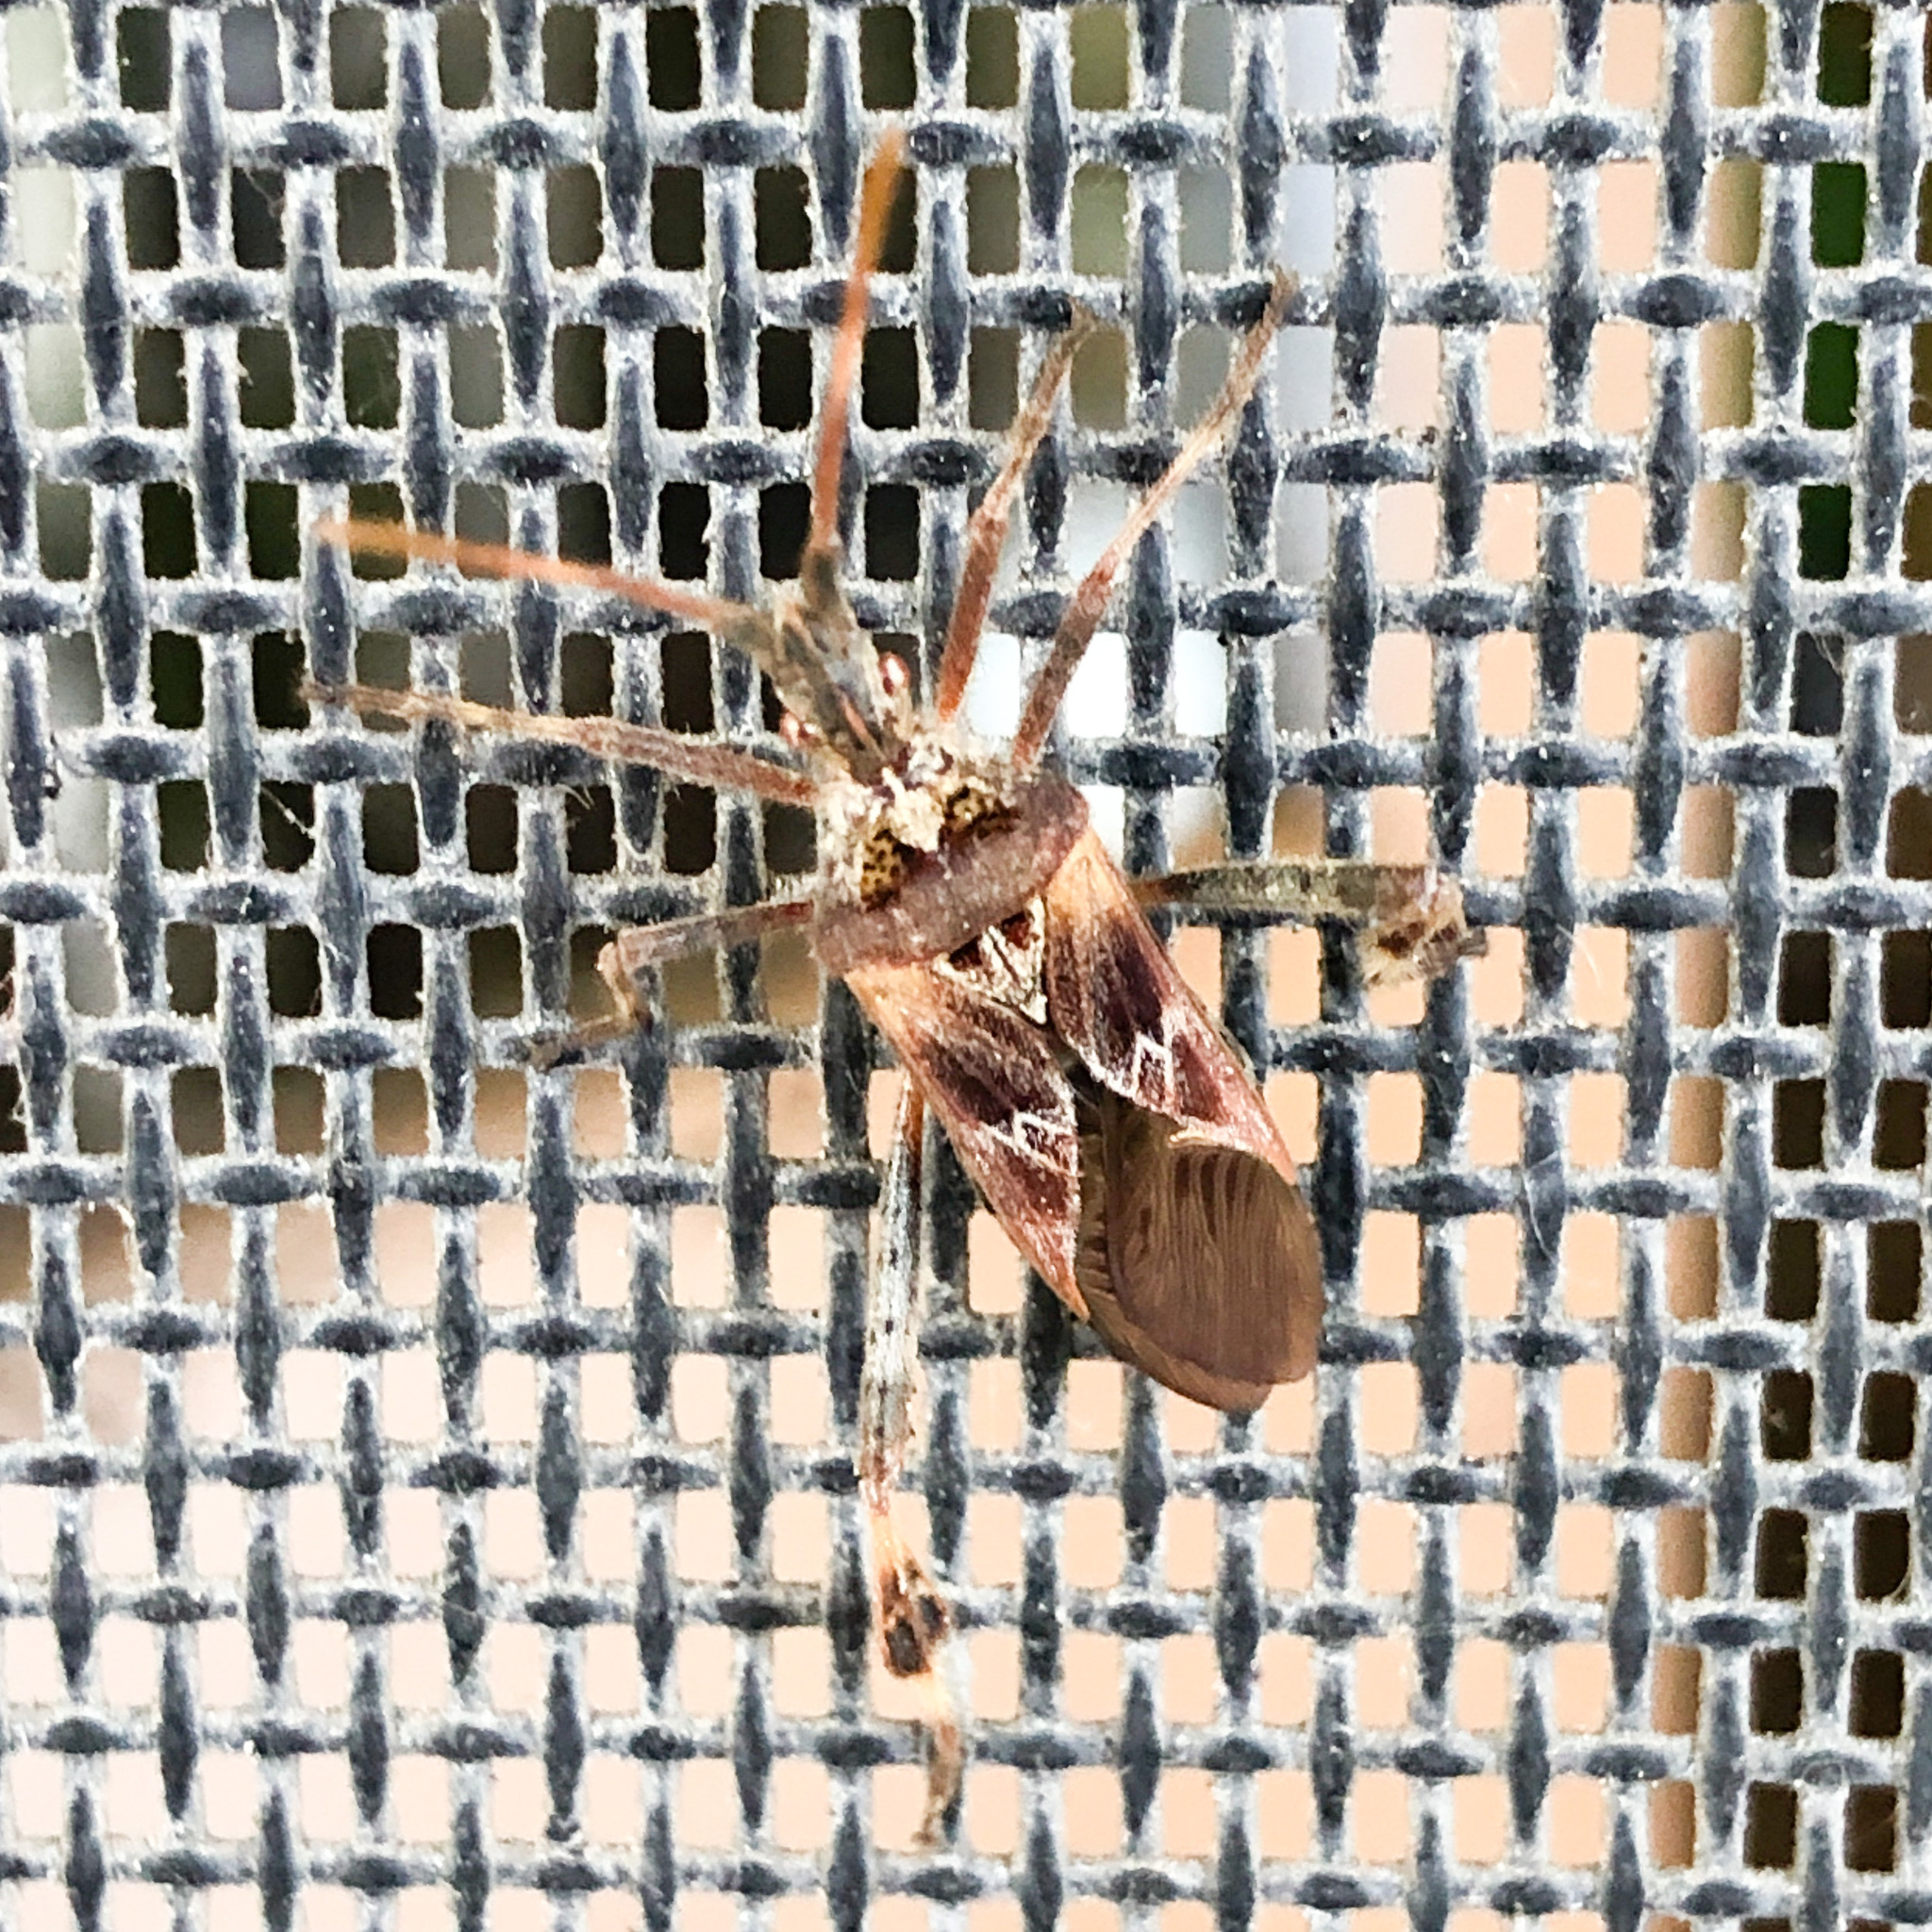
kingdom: Animalia
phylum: Arthropoda
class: Insecta
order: Hemiptera
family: Coreidae
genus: Leptoglossus
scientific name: Leptoglossus occidentalis
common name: Western conifer-seed bug
